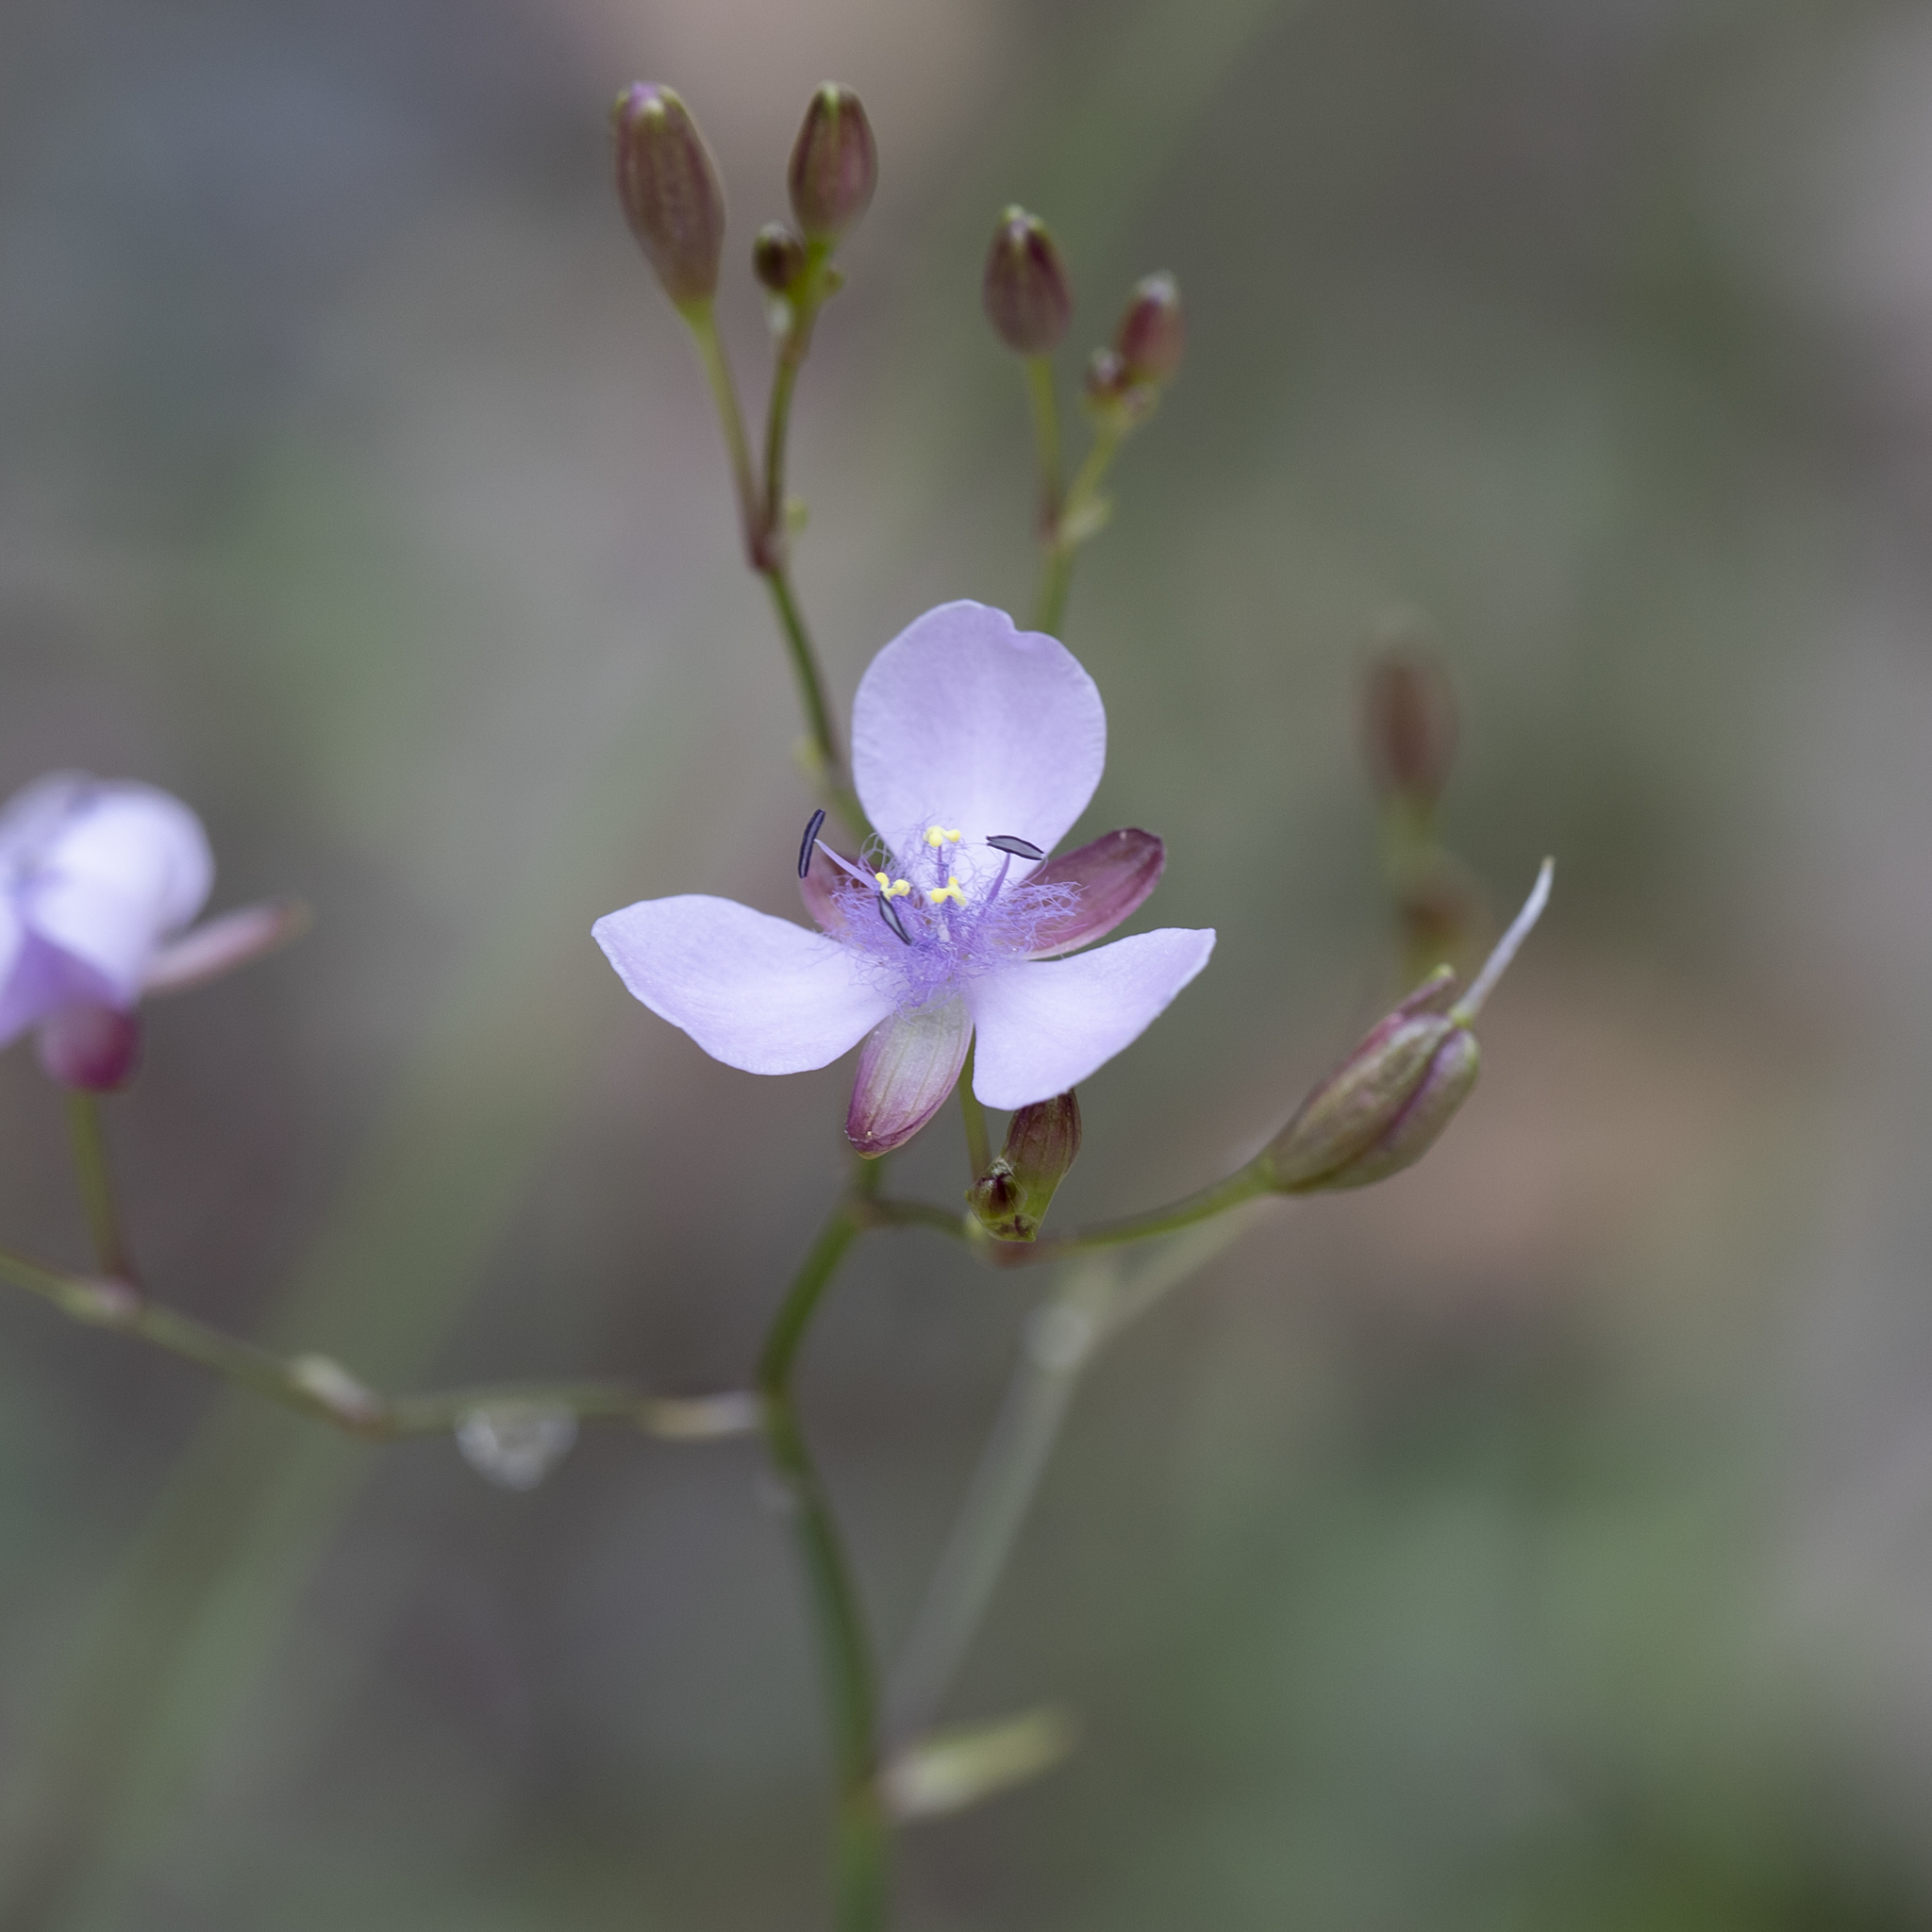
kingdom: Plantae
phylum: Tracheophyta
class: Liliopsida
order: Commelinales
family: Commelinaceae
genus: Murdannia
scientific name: Murdannia graminea
